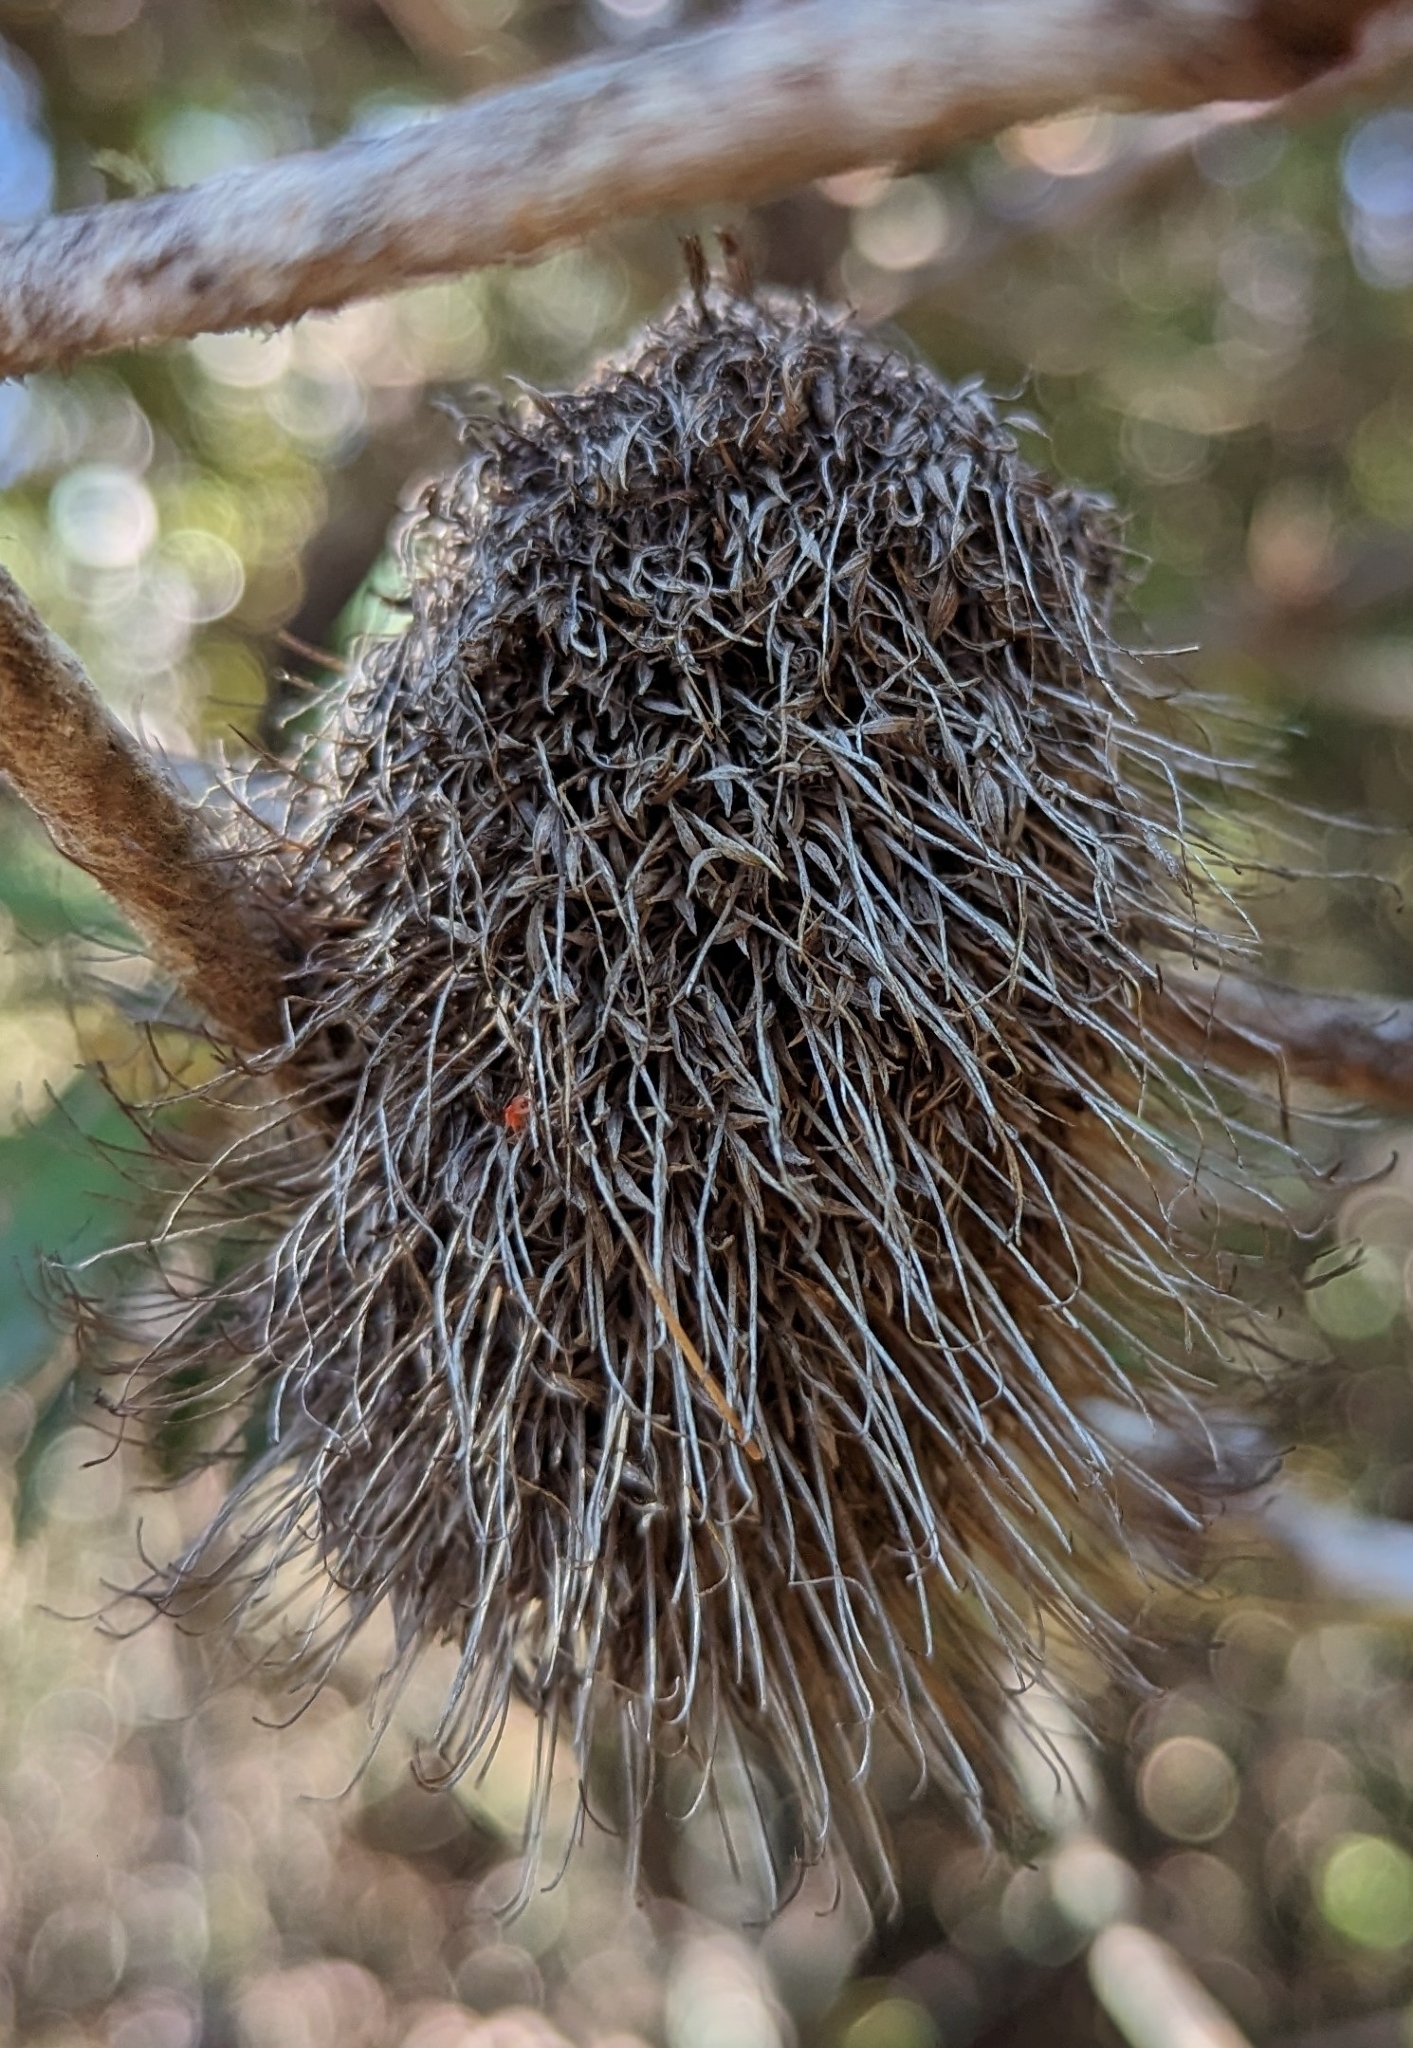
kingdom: Plantae
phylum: Tracheophyta
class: Magnoliopsida
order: Proteales
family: Proteaceae
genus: Banksia
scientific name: Banksia marginata
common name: Silver banksia
